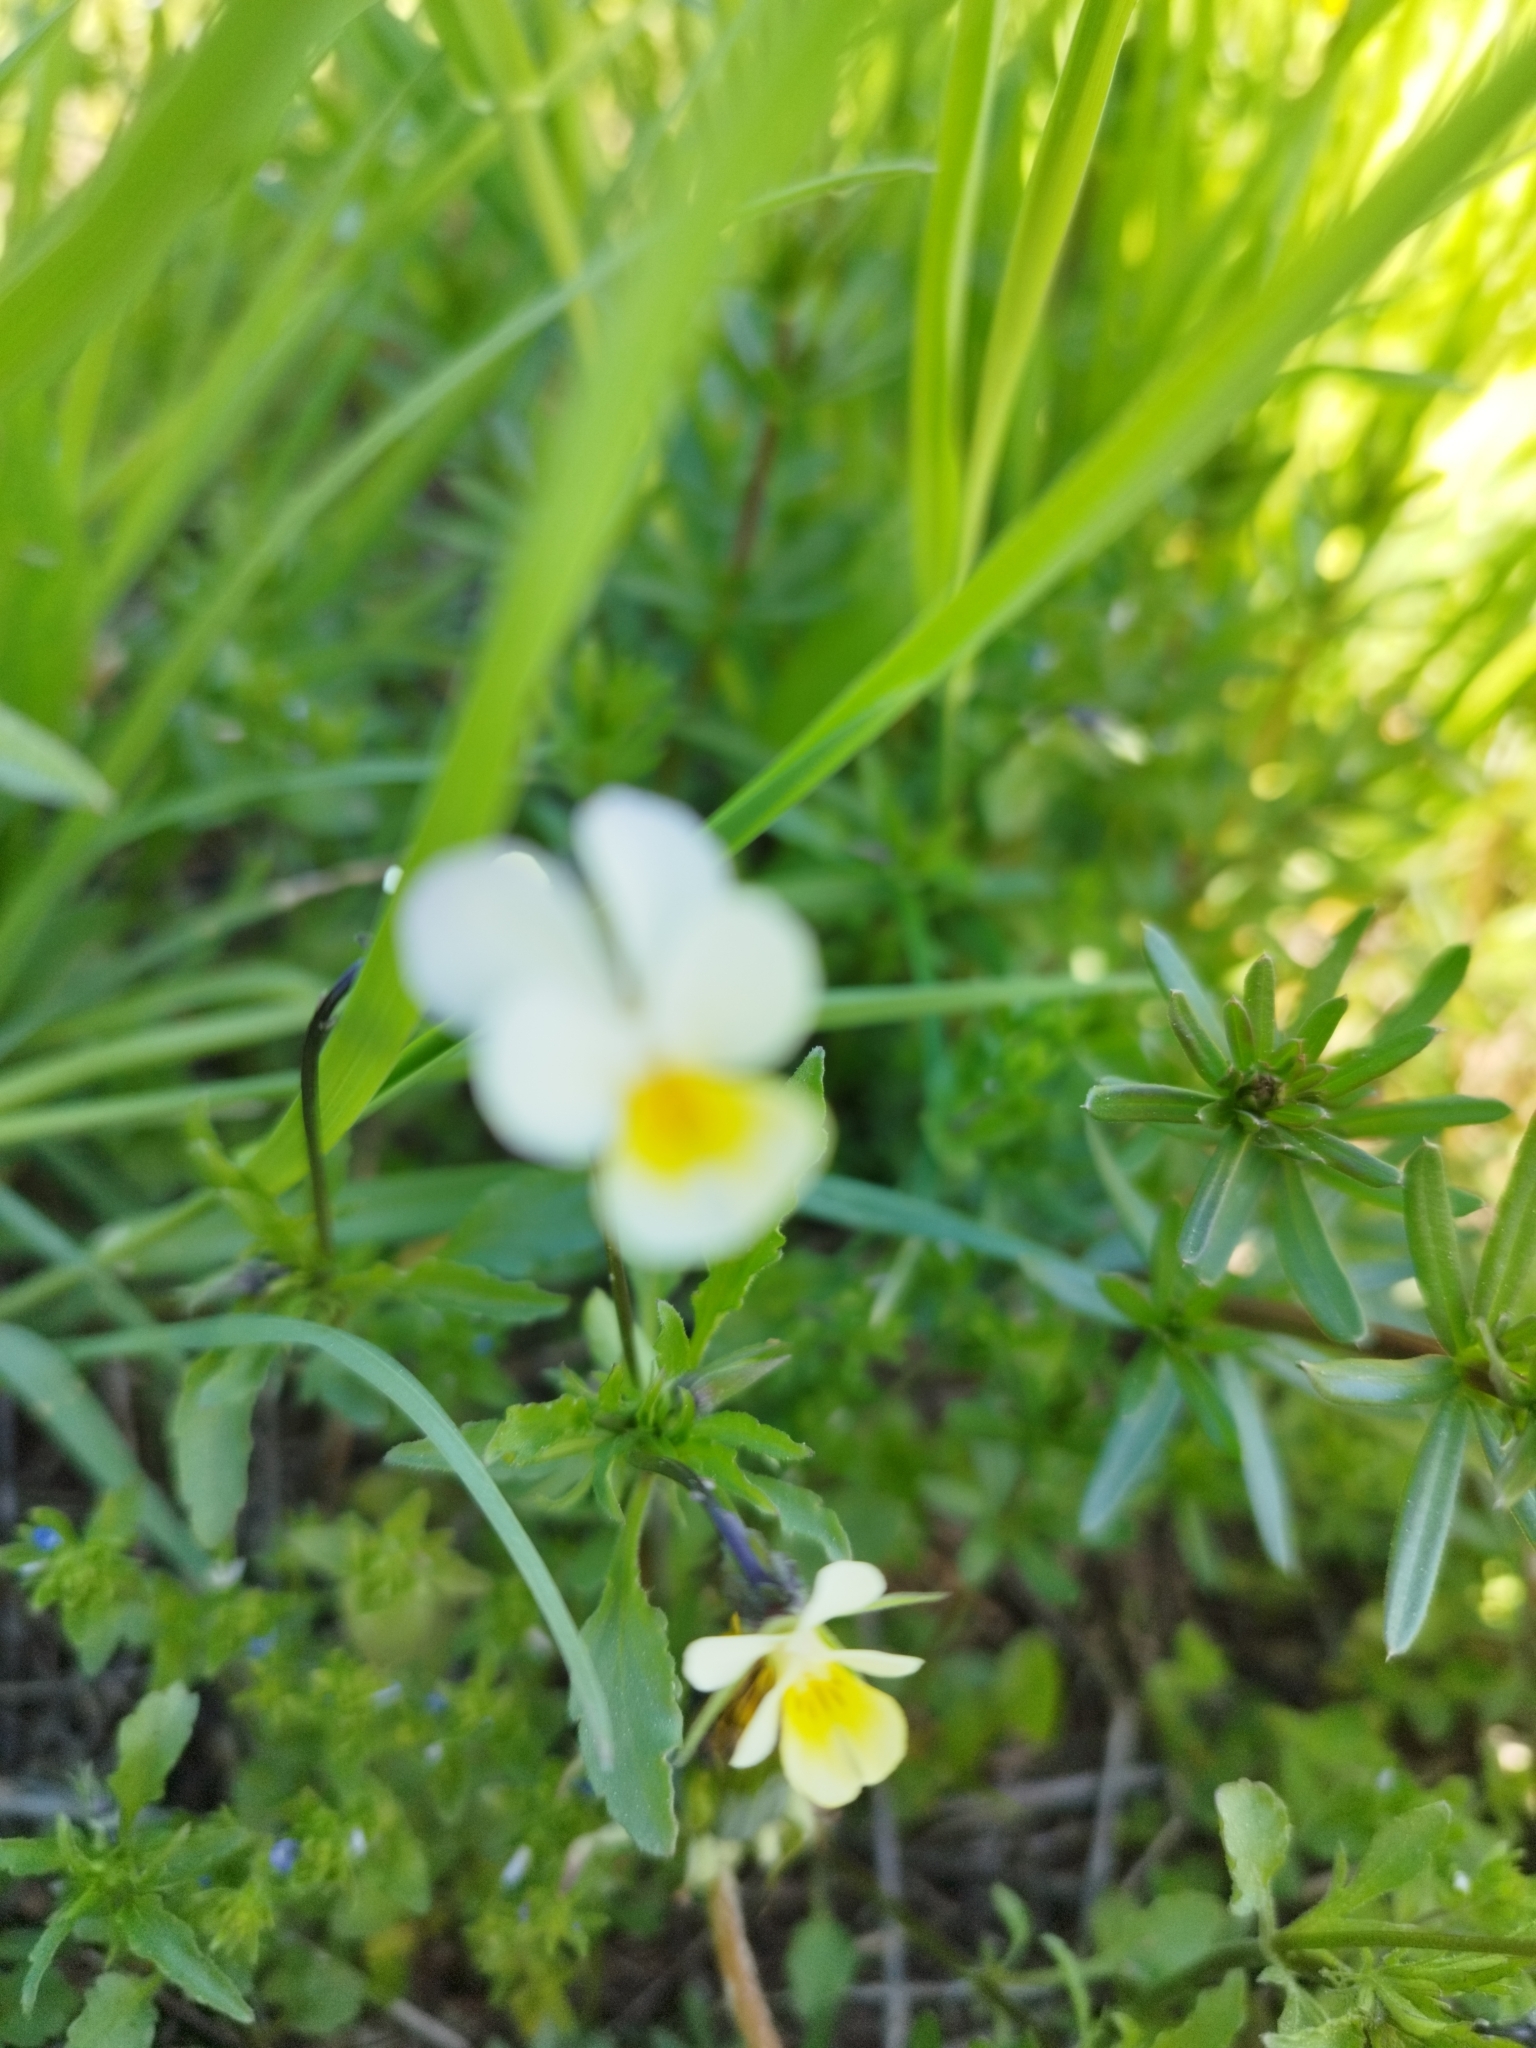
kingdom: Plantae
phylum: Tracheophyta
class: Magnoliopsida
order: Malpighiales
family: Violaceae
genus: Viola
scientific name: Viola arvensis
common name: Field pansy
